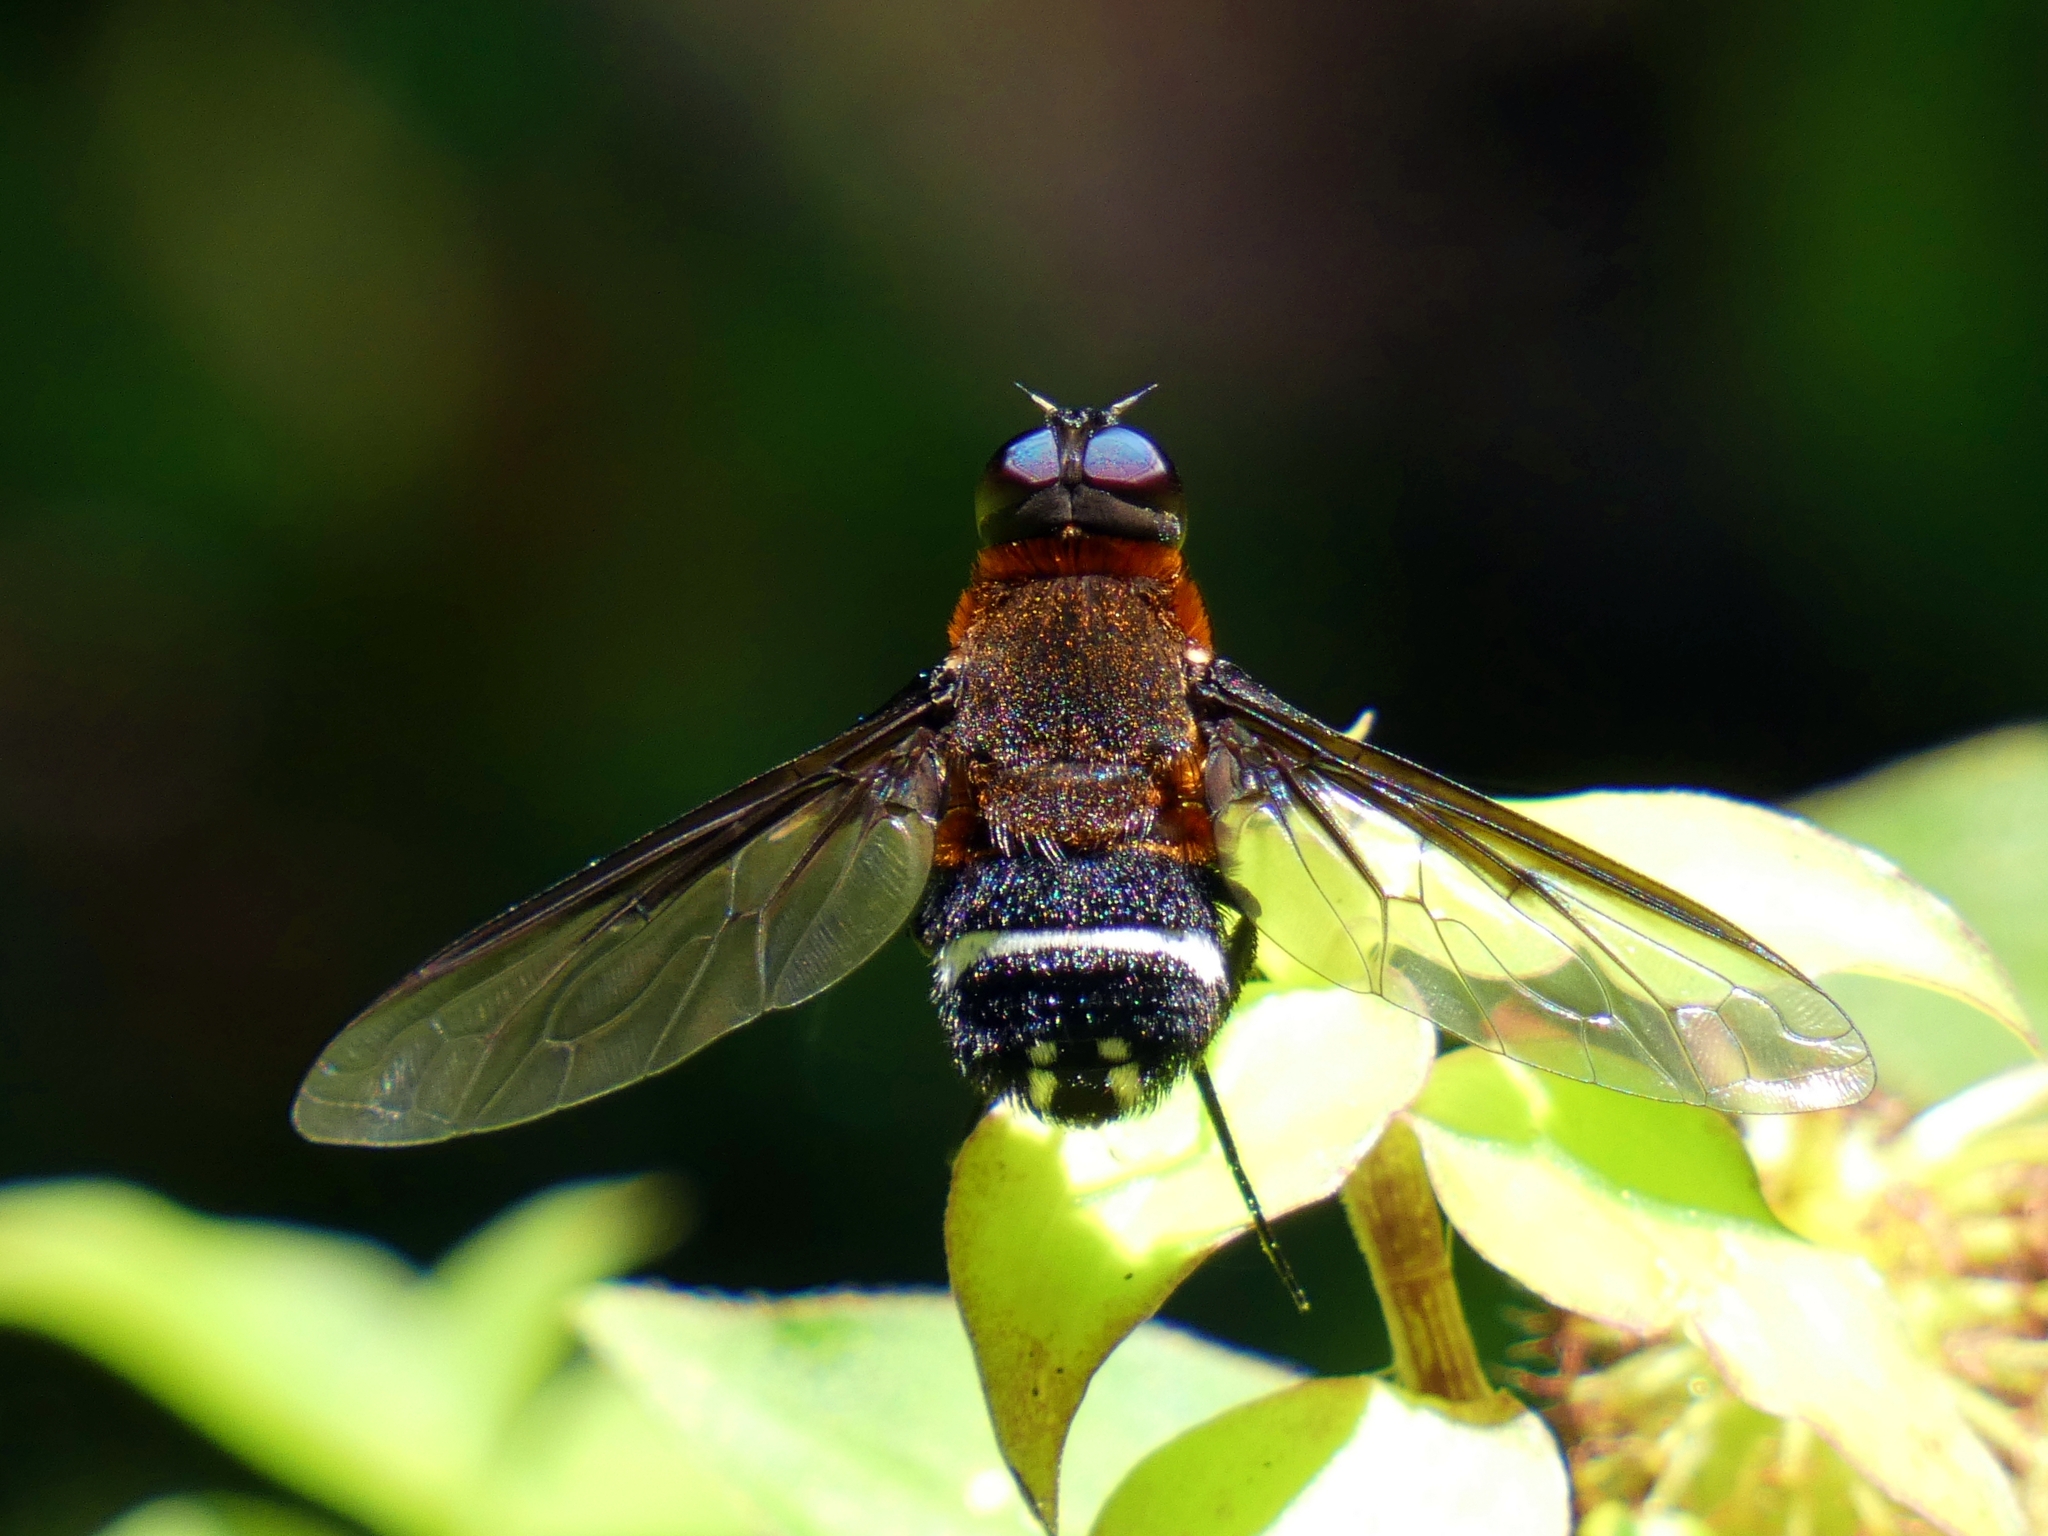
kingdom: Animalia
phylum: Arthropoda
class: Insecta
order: Diptera
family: Bombyliidae
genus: Ligyra
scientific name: Ligyra doryca
